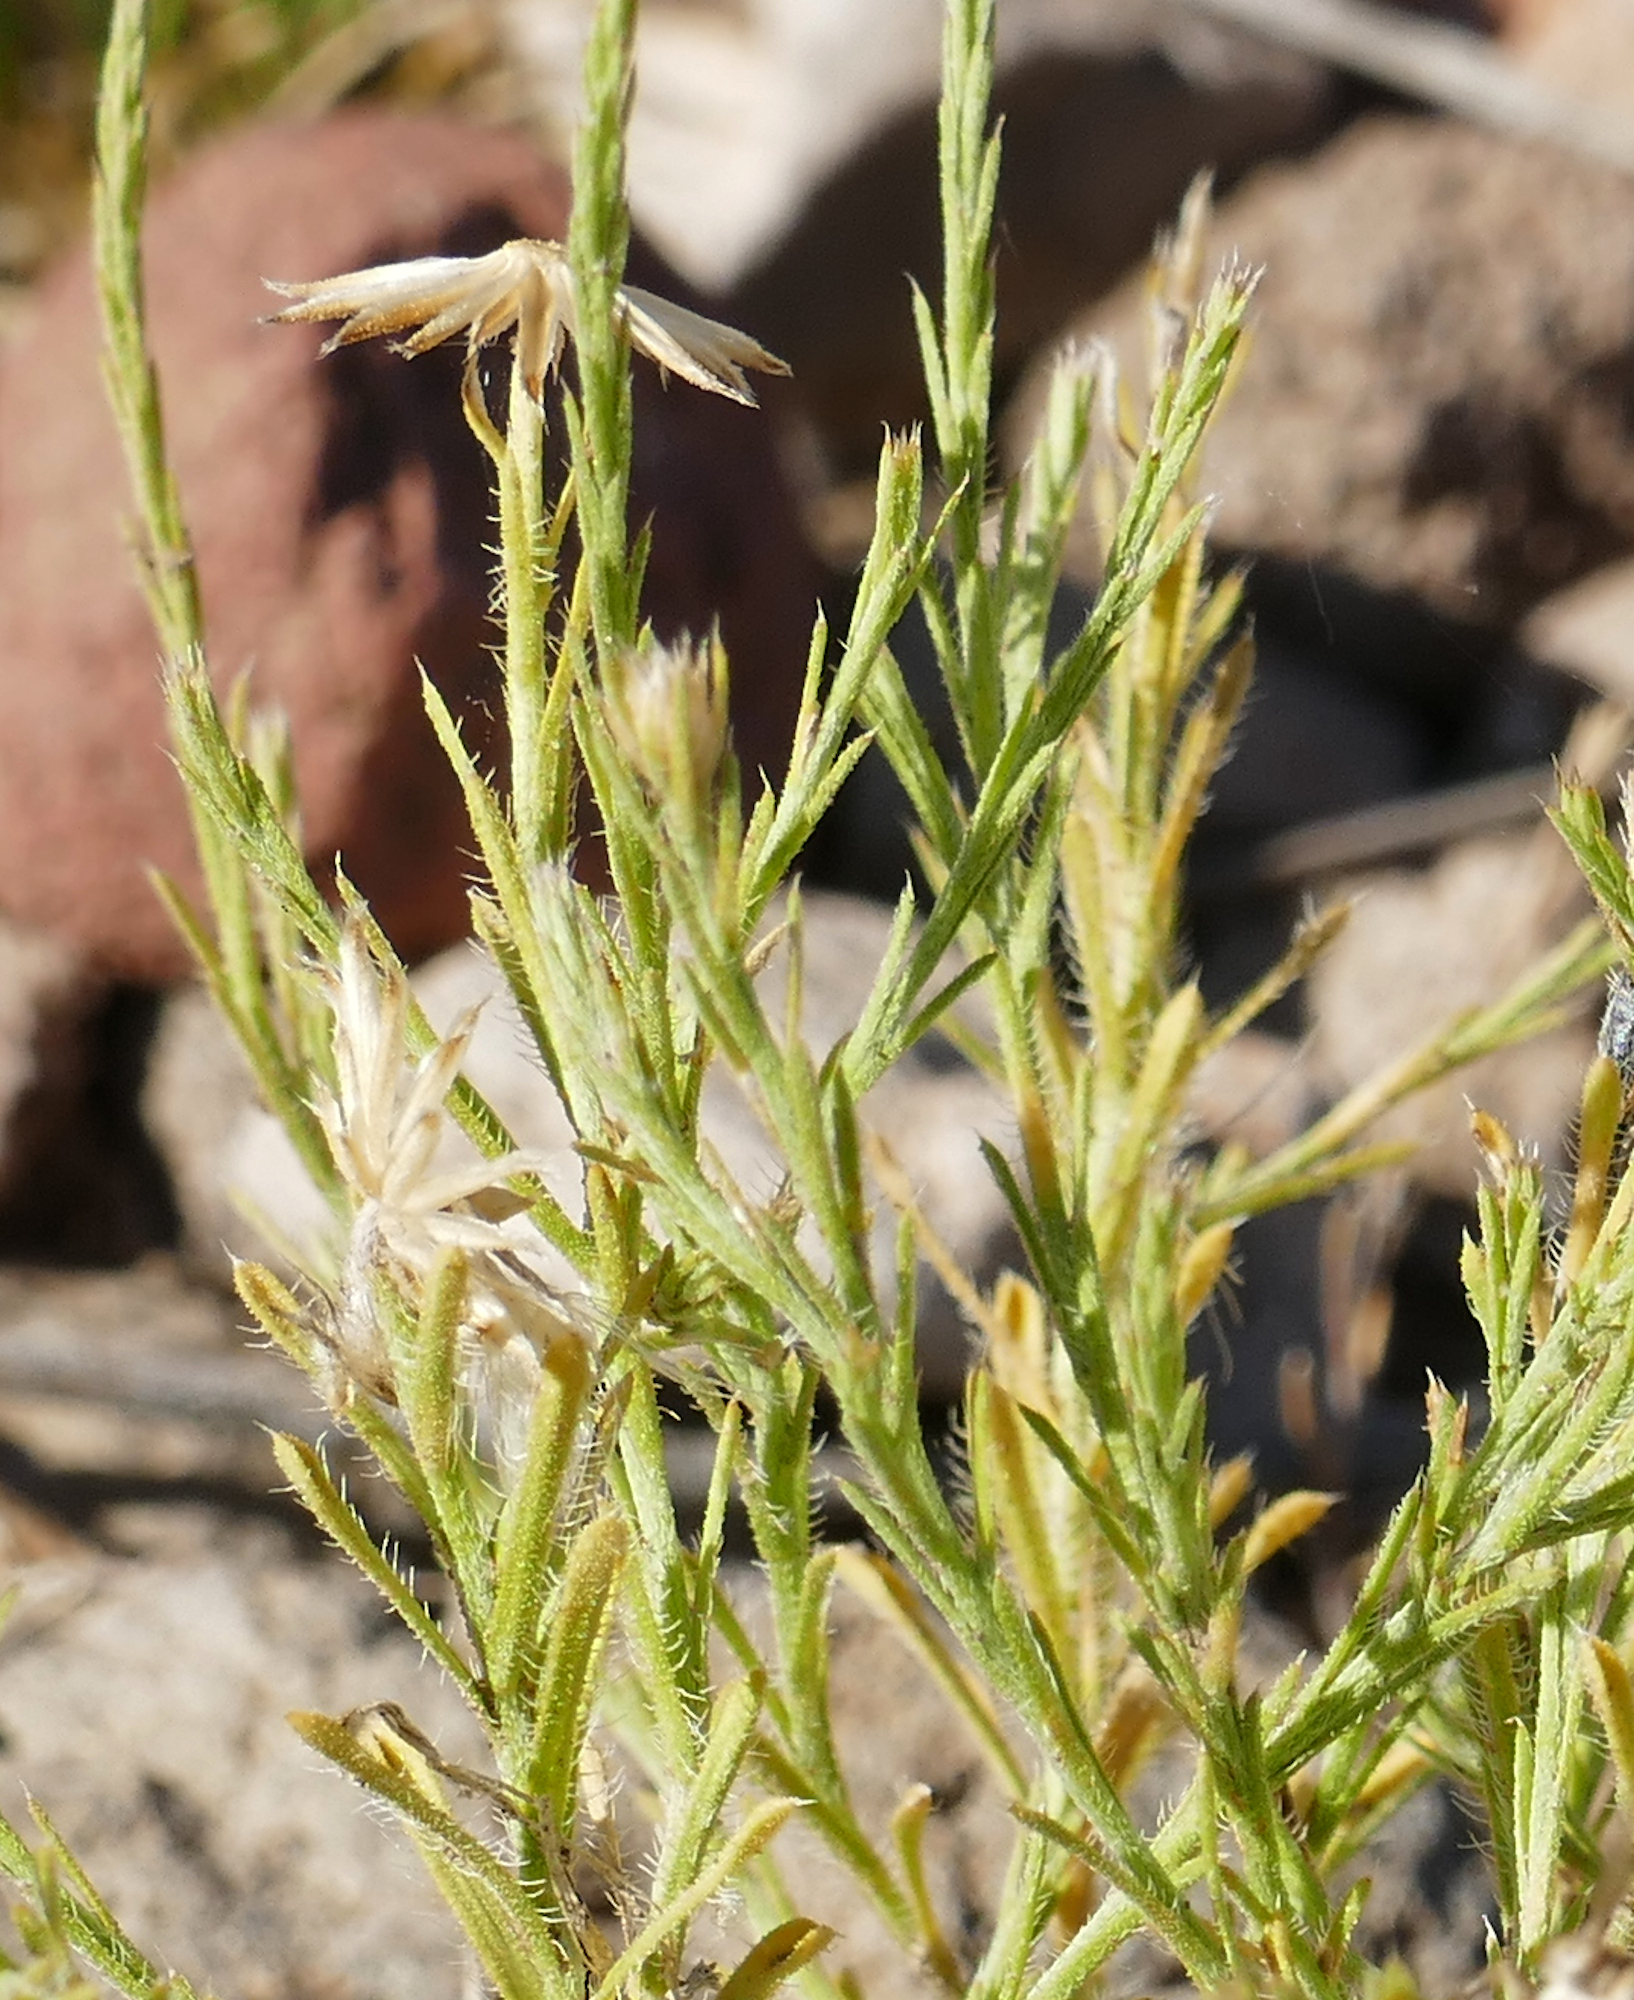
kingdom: Plantae
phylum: Tracheophyta
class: Magnoliopsida
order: Asterales
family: Asteraceae
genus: Chaetopappa
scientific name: Chaetopappa ericoides
